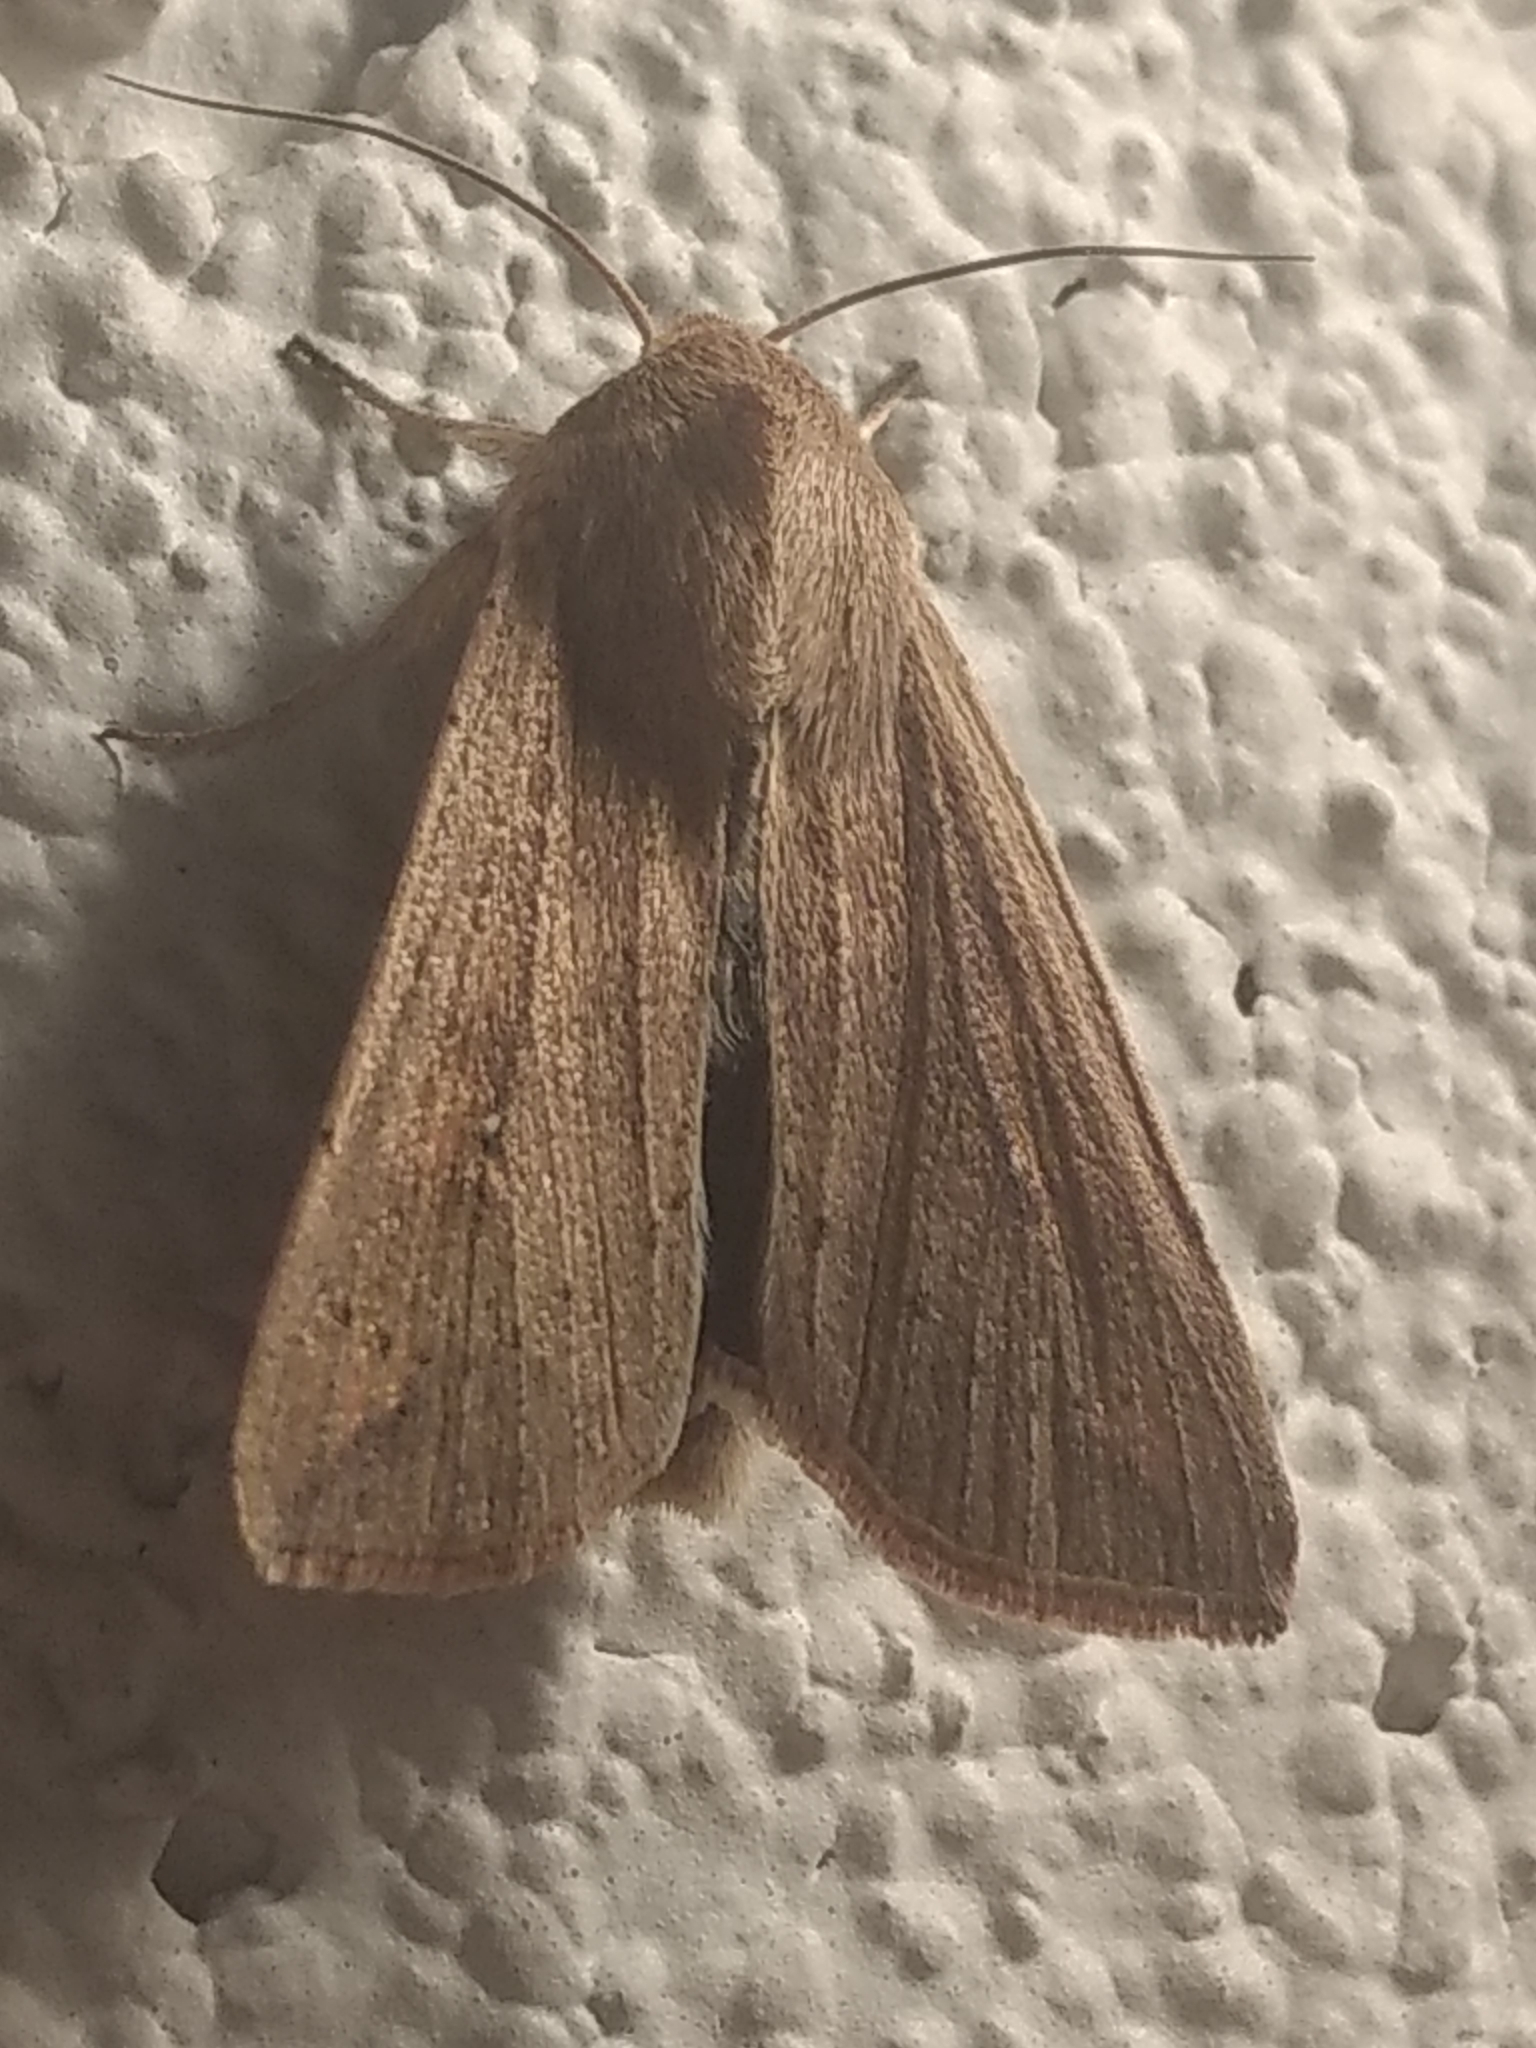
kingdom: Animalia
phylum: Arthropoda
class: Insecta
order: Lepidoptera
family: Noctuidae
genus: Mythimna
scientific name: Mythimna unipuncta
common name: White-speck
